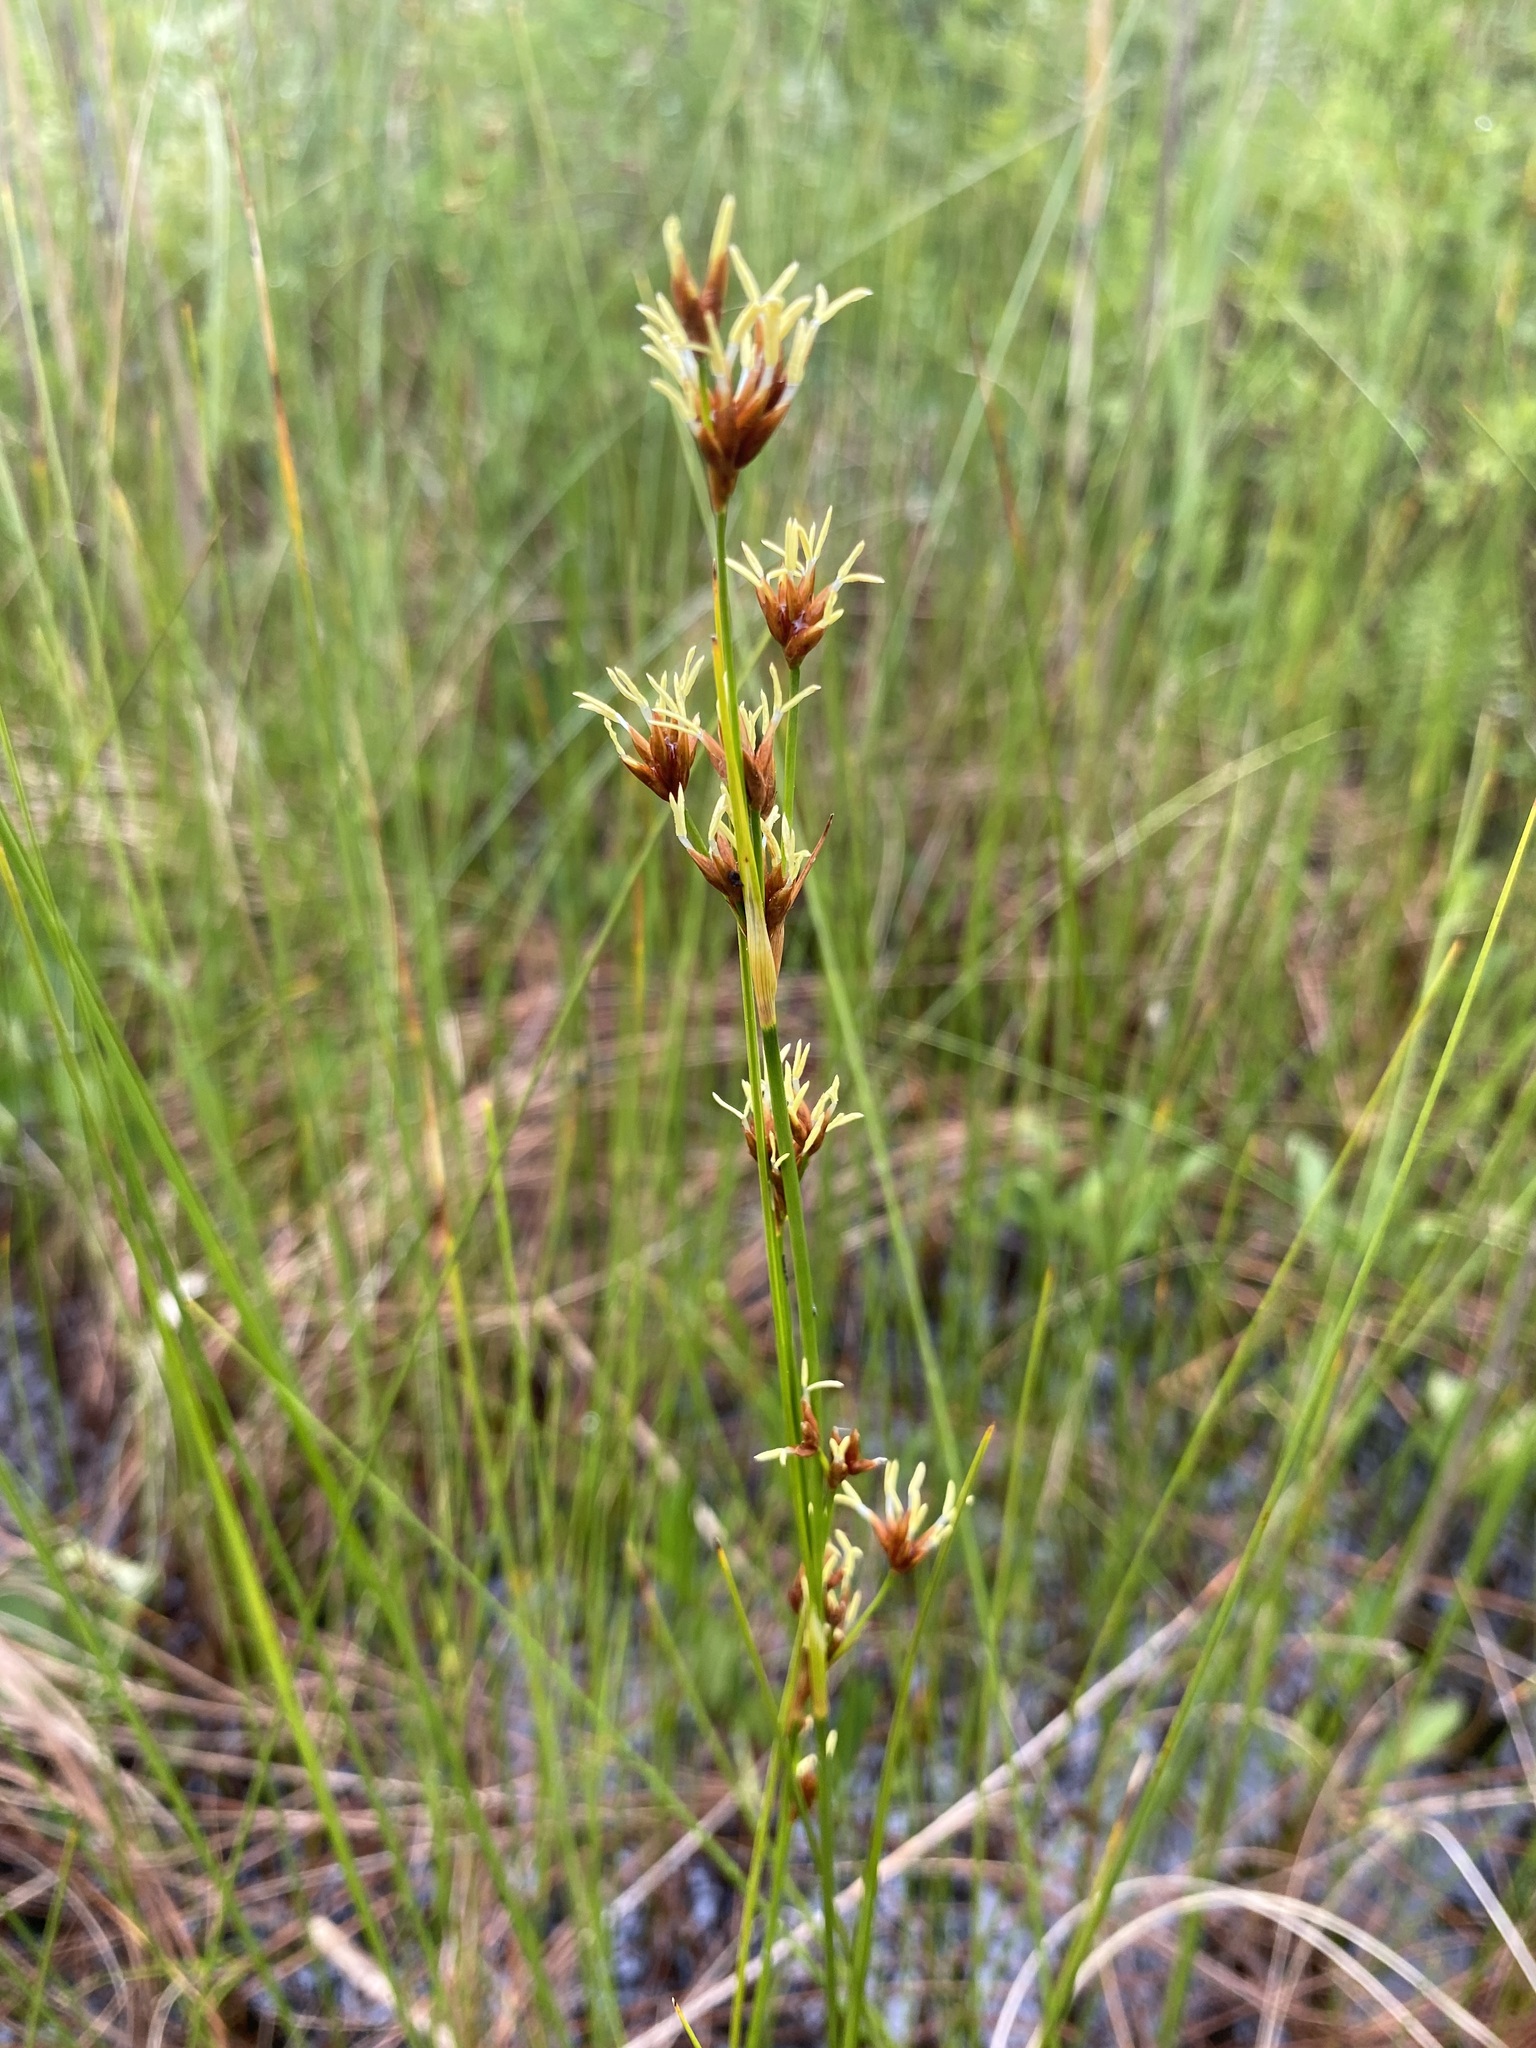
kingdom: Plantae
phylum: Tracheophyta
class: Liliopsida
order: Poales
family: Cyperaceae
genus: Cladium
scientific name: Cladium mariscoides
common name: Smooth sawgrass
